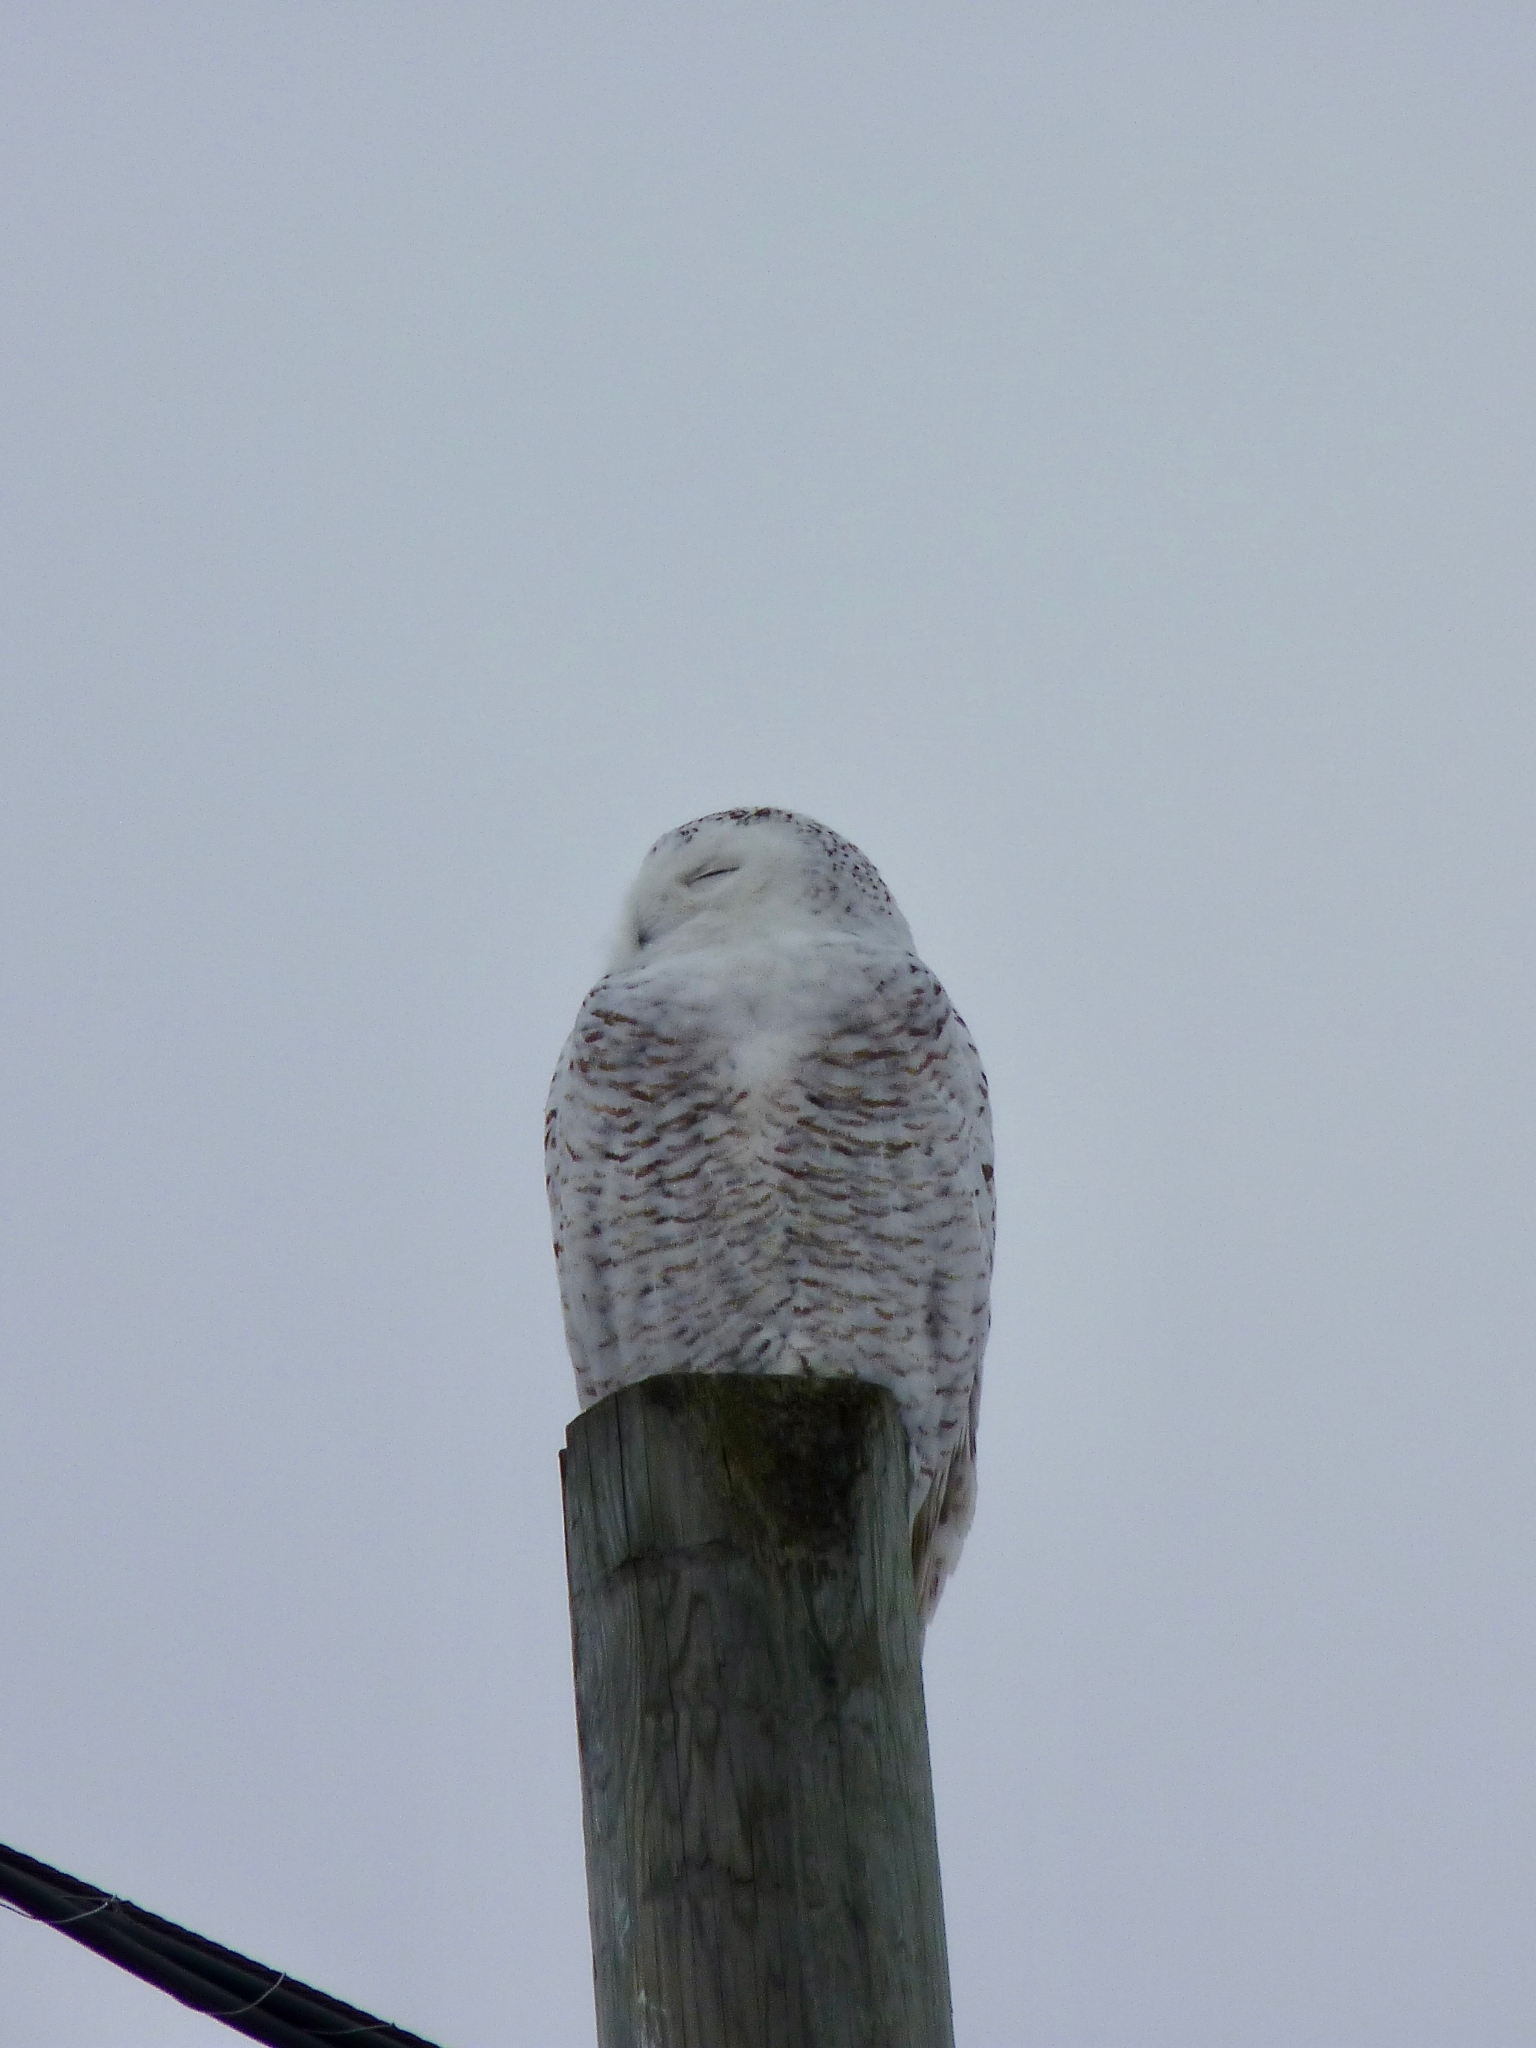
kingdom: Animalia
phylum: Chordata
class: Aves
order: Strigiformes
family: Strigidae
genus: Bubo
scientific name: Bubo scandiacus
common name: Snowy owl
